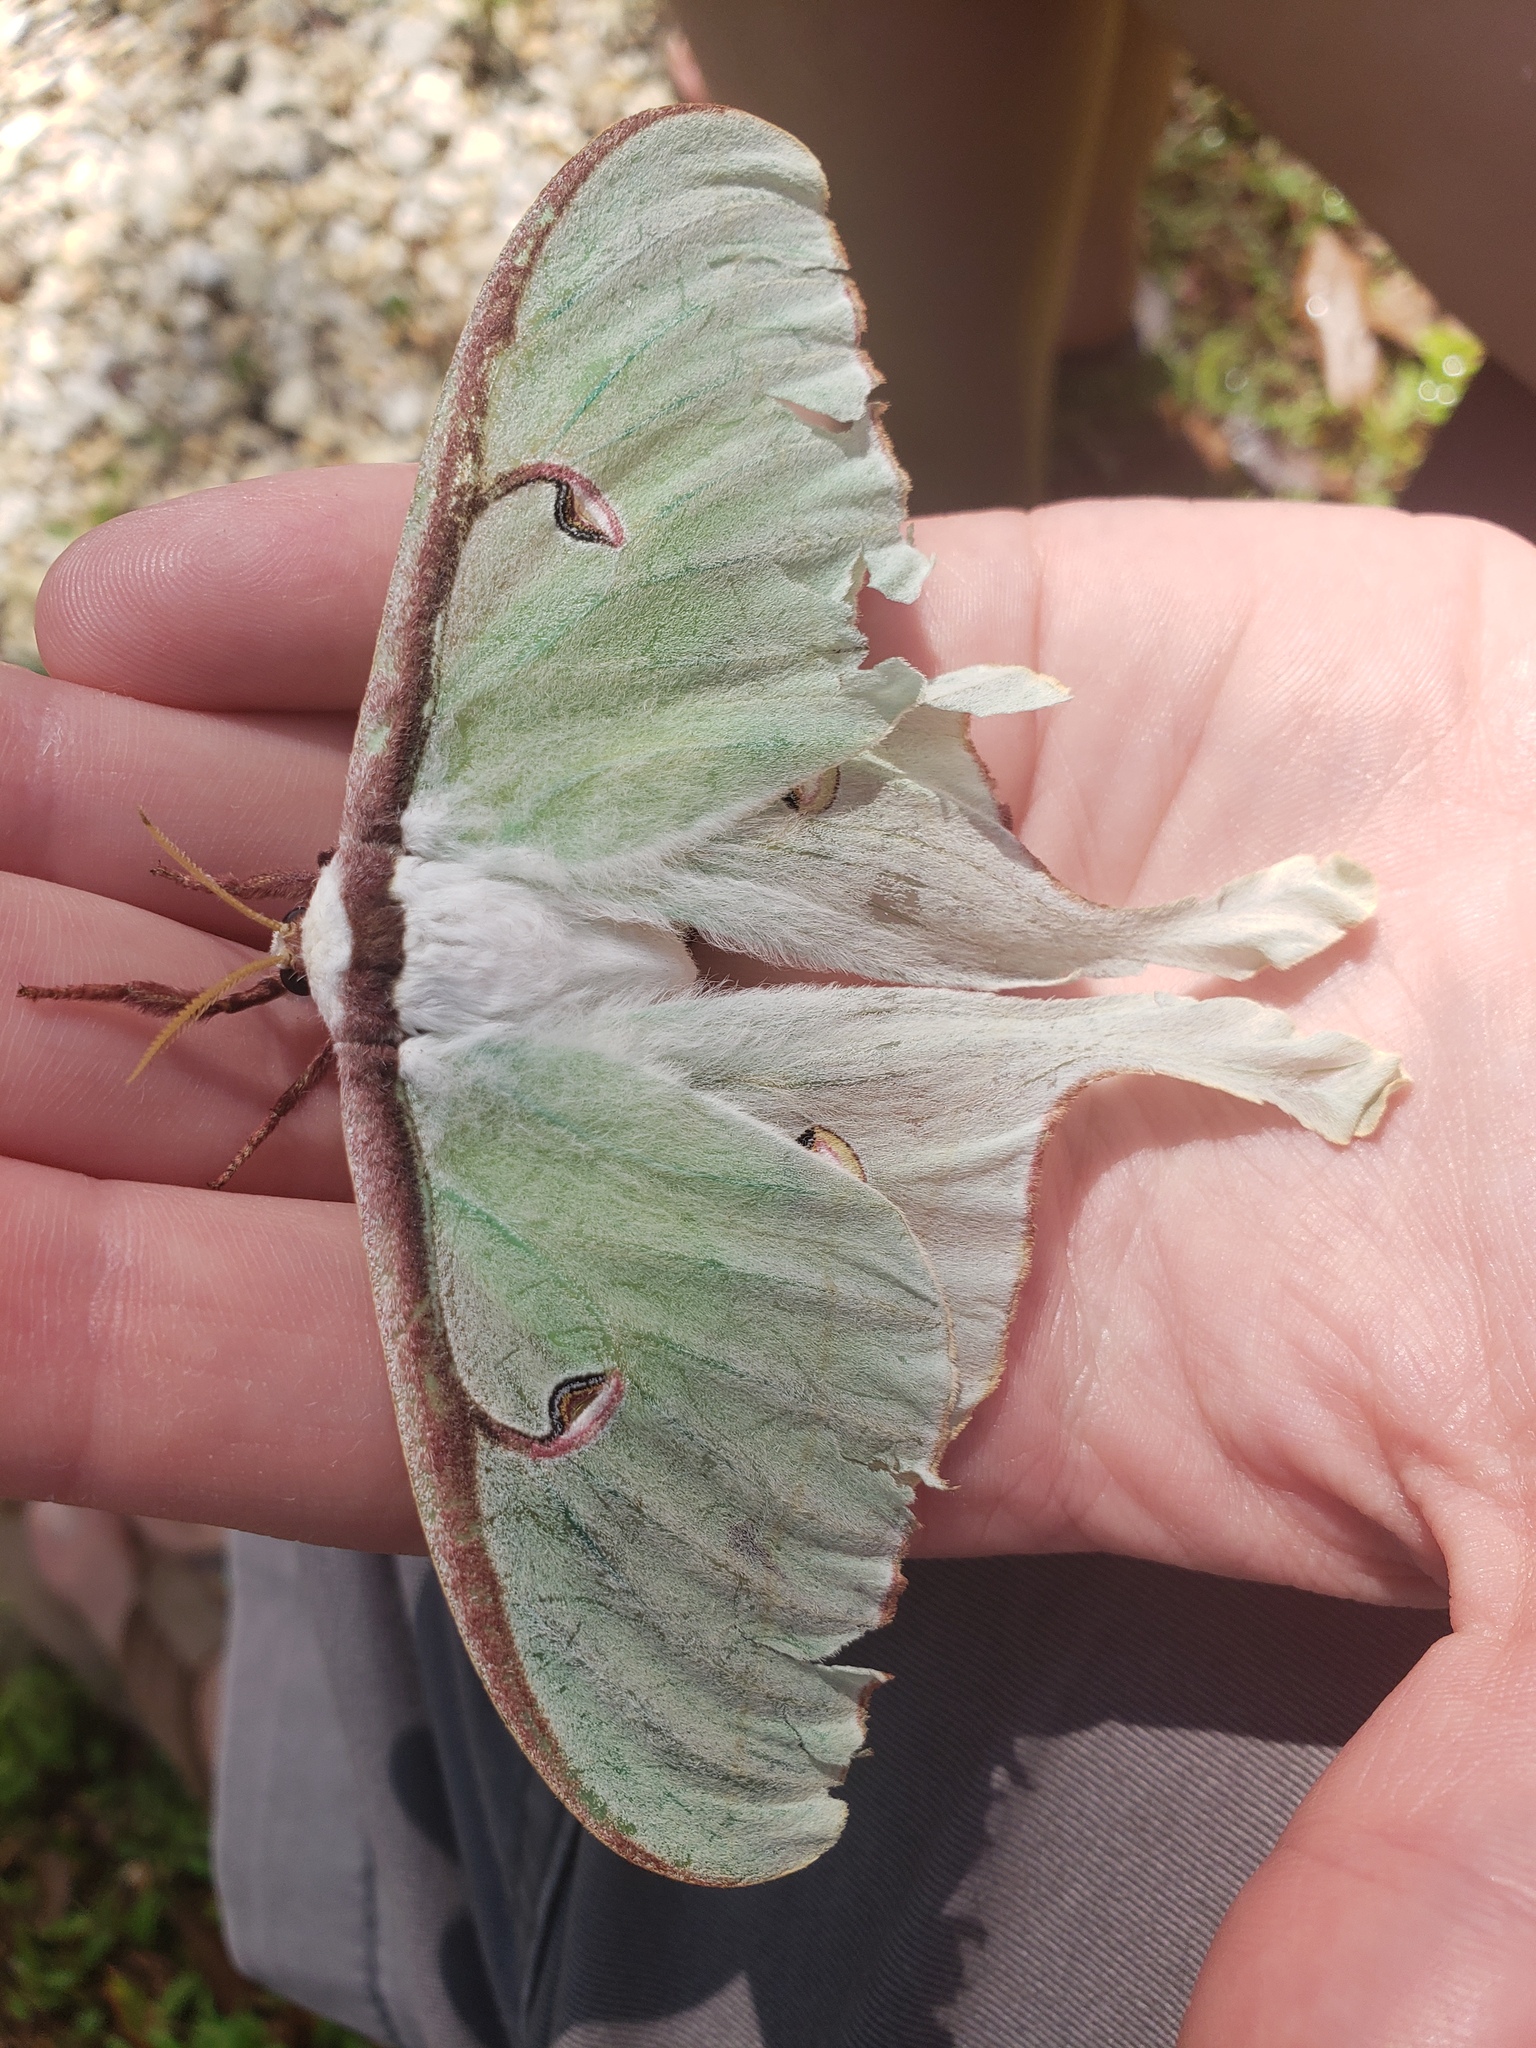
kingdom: Animalia
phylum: Arthropoda
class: Insecta
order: Lepidoptera
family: Saturniidae
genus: Actias
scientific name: Actias luna
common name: Luna moth
